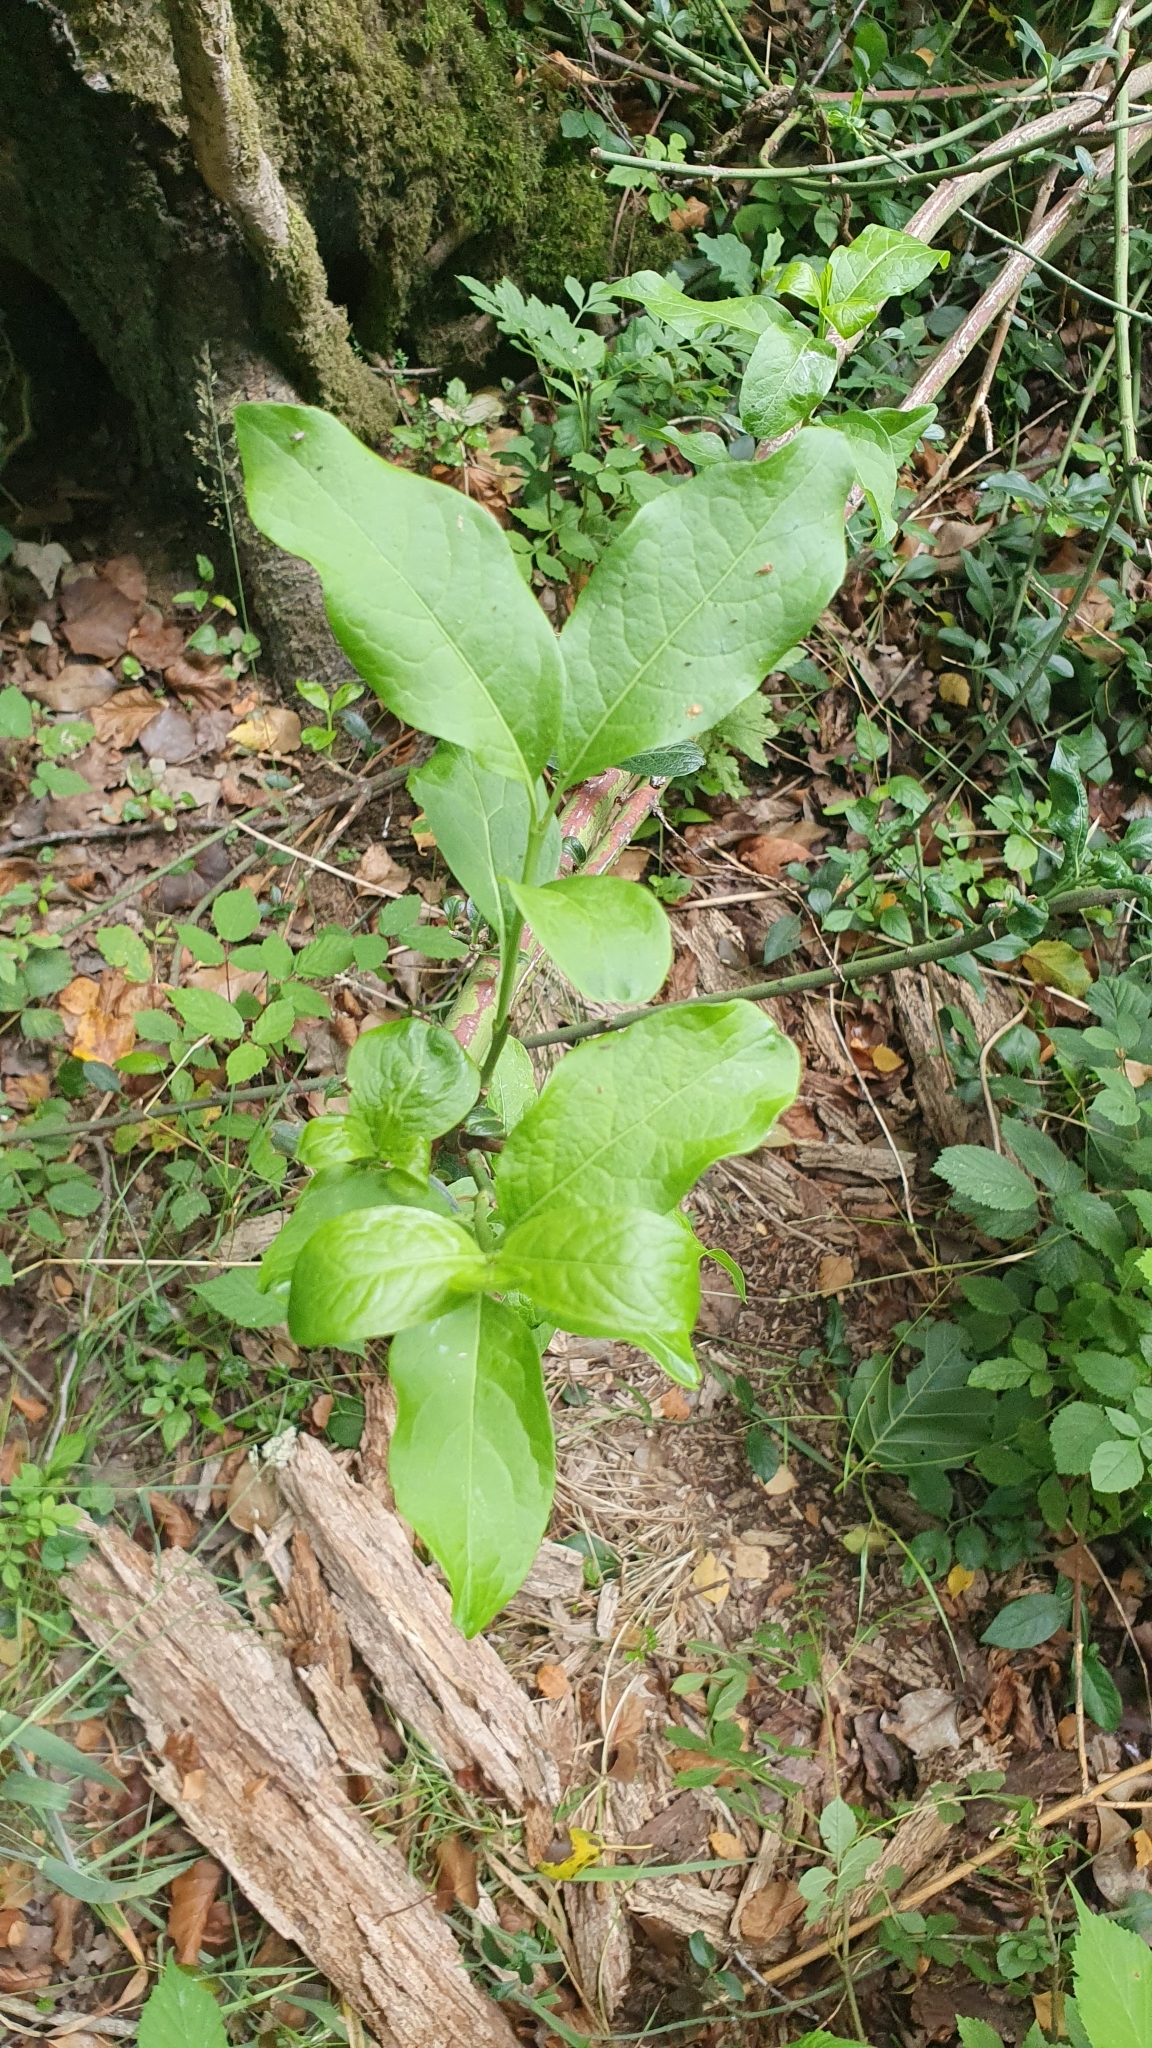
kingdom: Plantae
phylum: Tracheophyta
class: Magnoliopsida
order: Celastrales
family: Celastraceae
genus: Euonymus
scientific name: Euonymus europaeus
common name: Spindle
